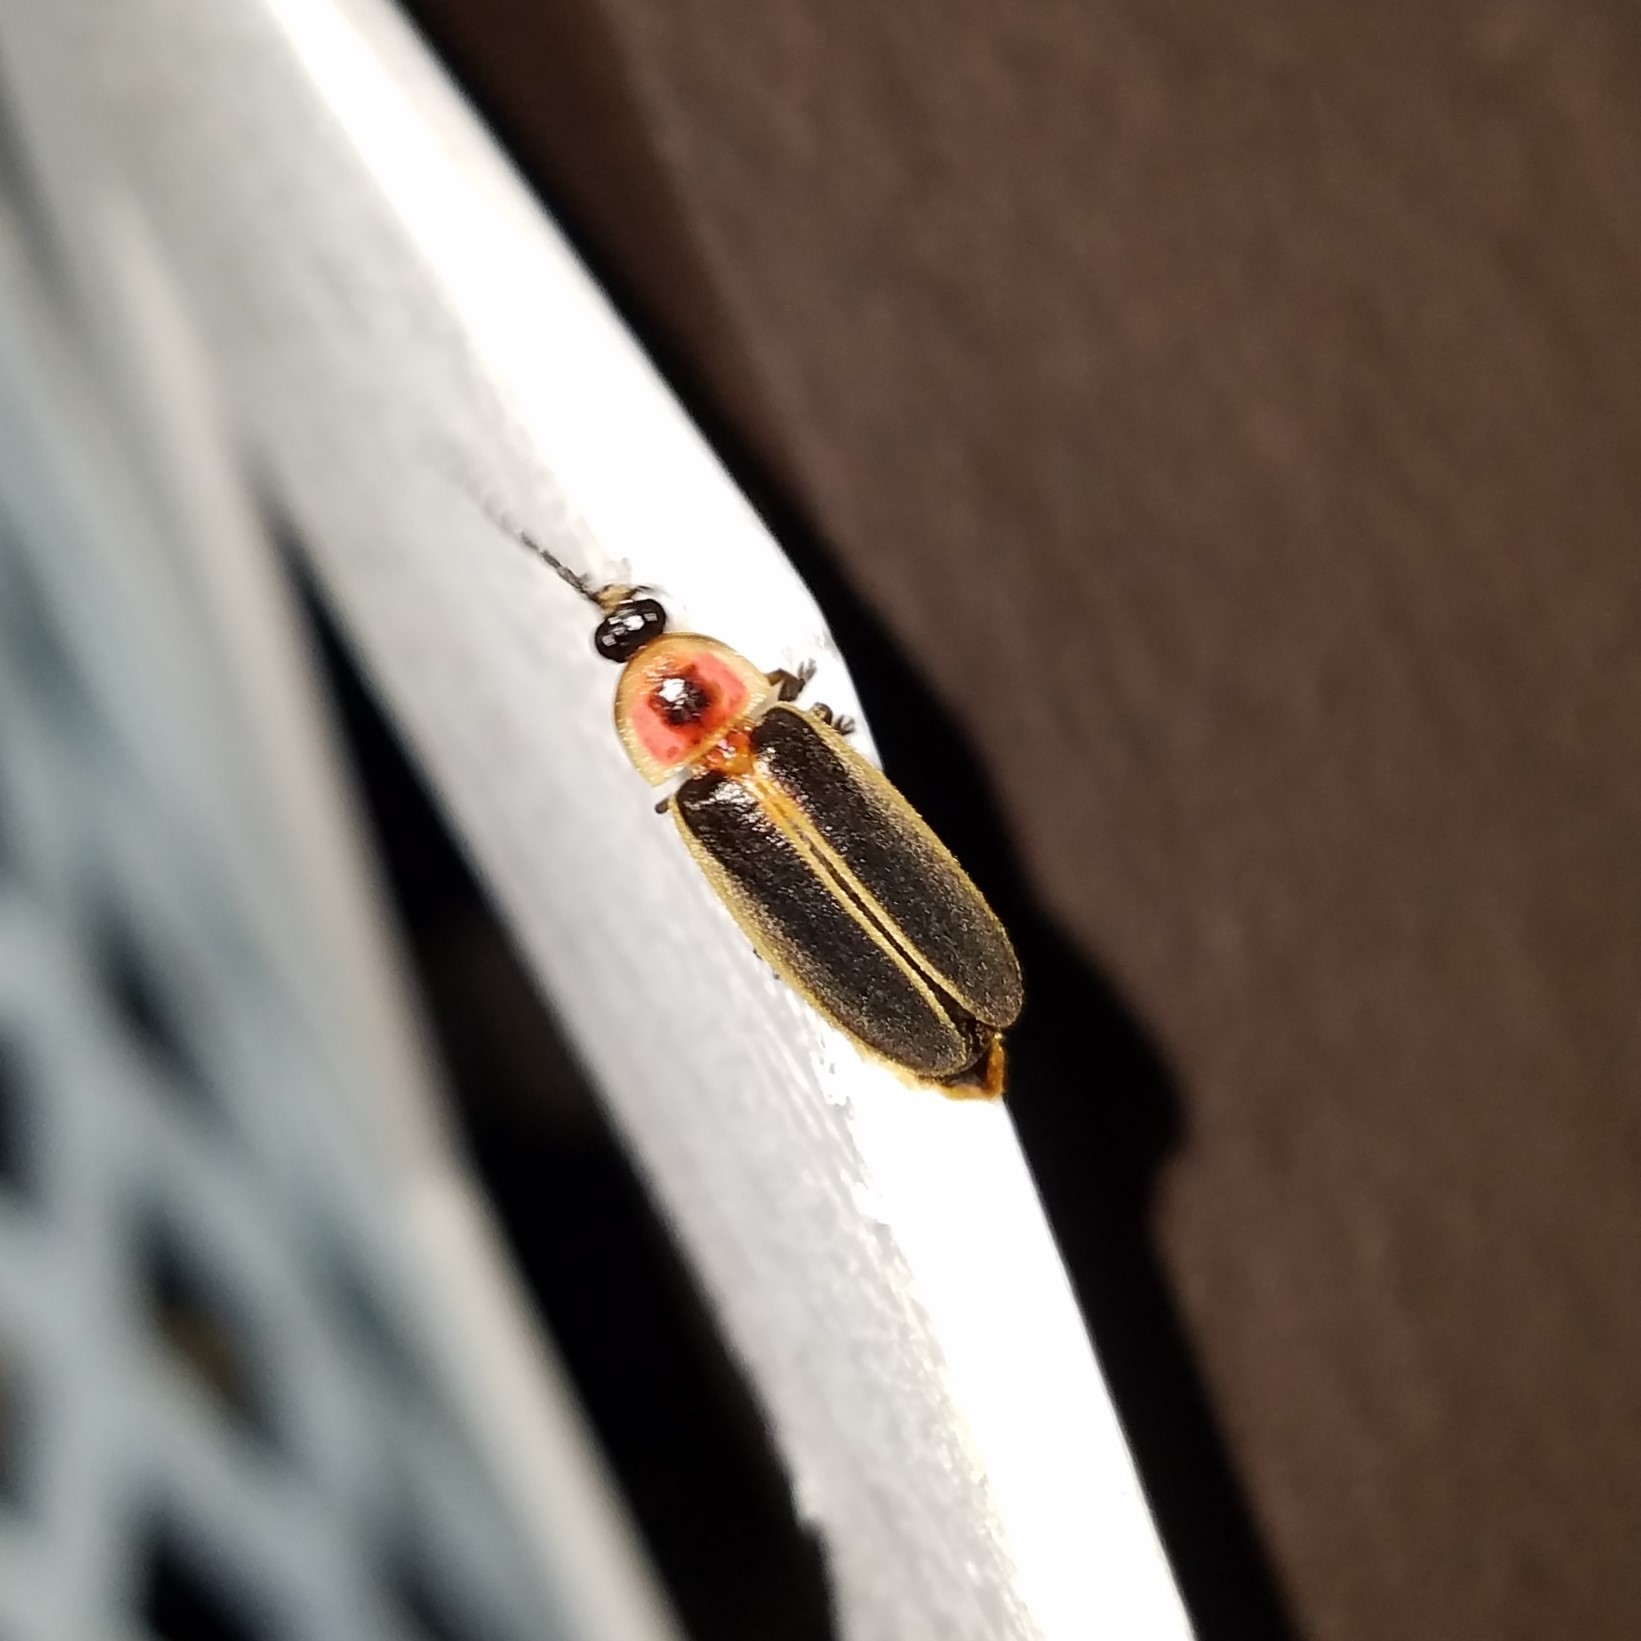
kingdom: Animalia
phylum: Arthropoda
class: Insecta
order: Coleoptera
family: Lampyridae
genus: Photinus
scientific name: Photinus
